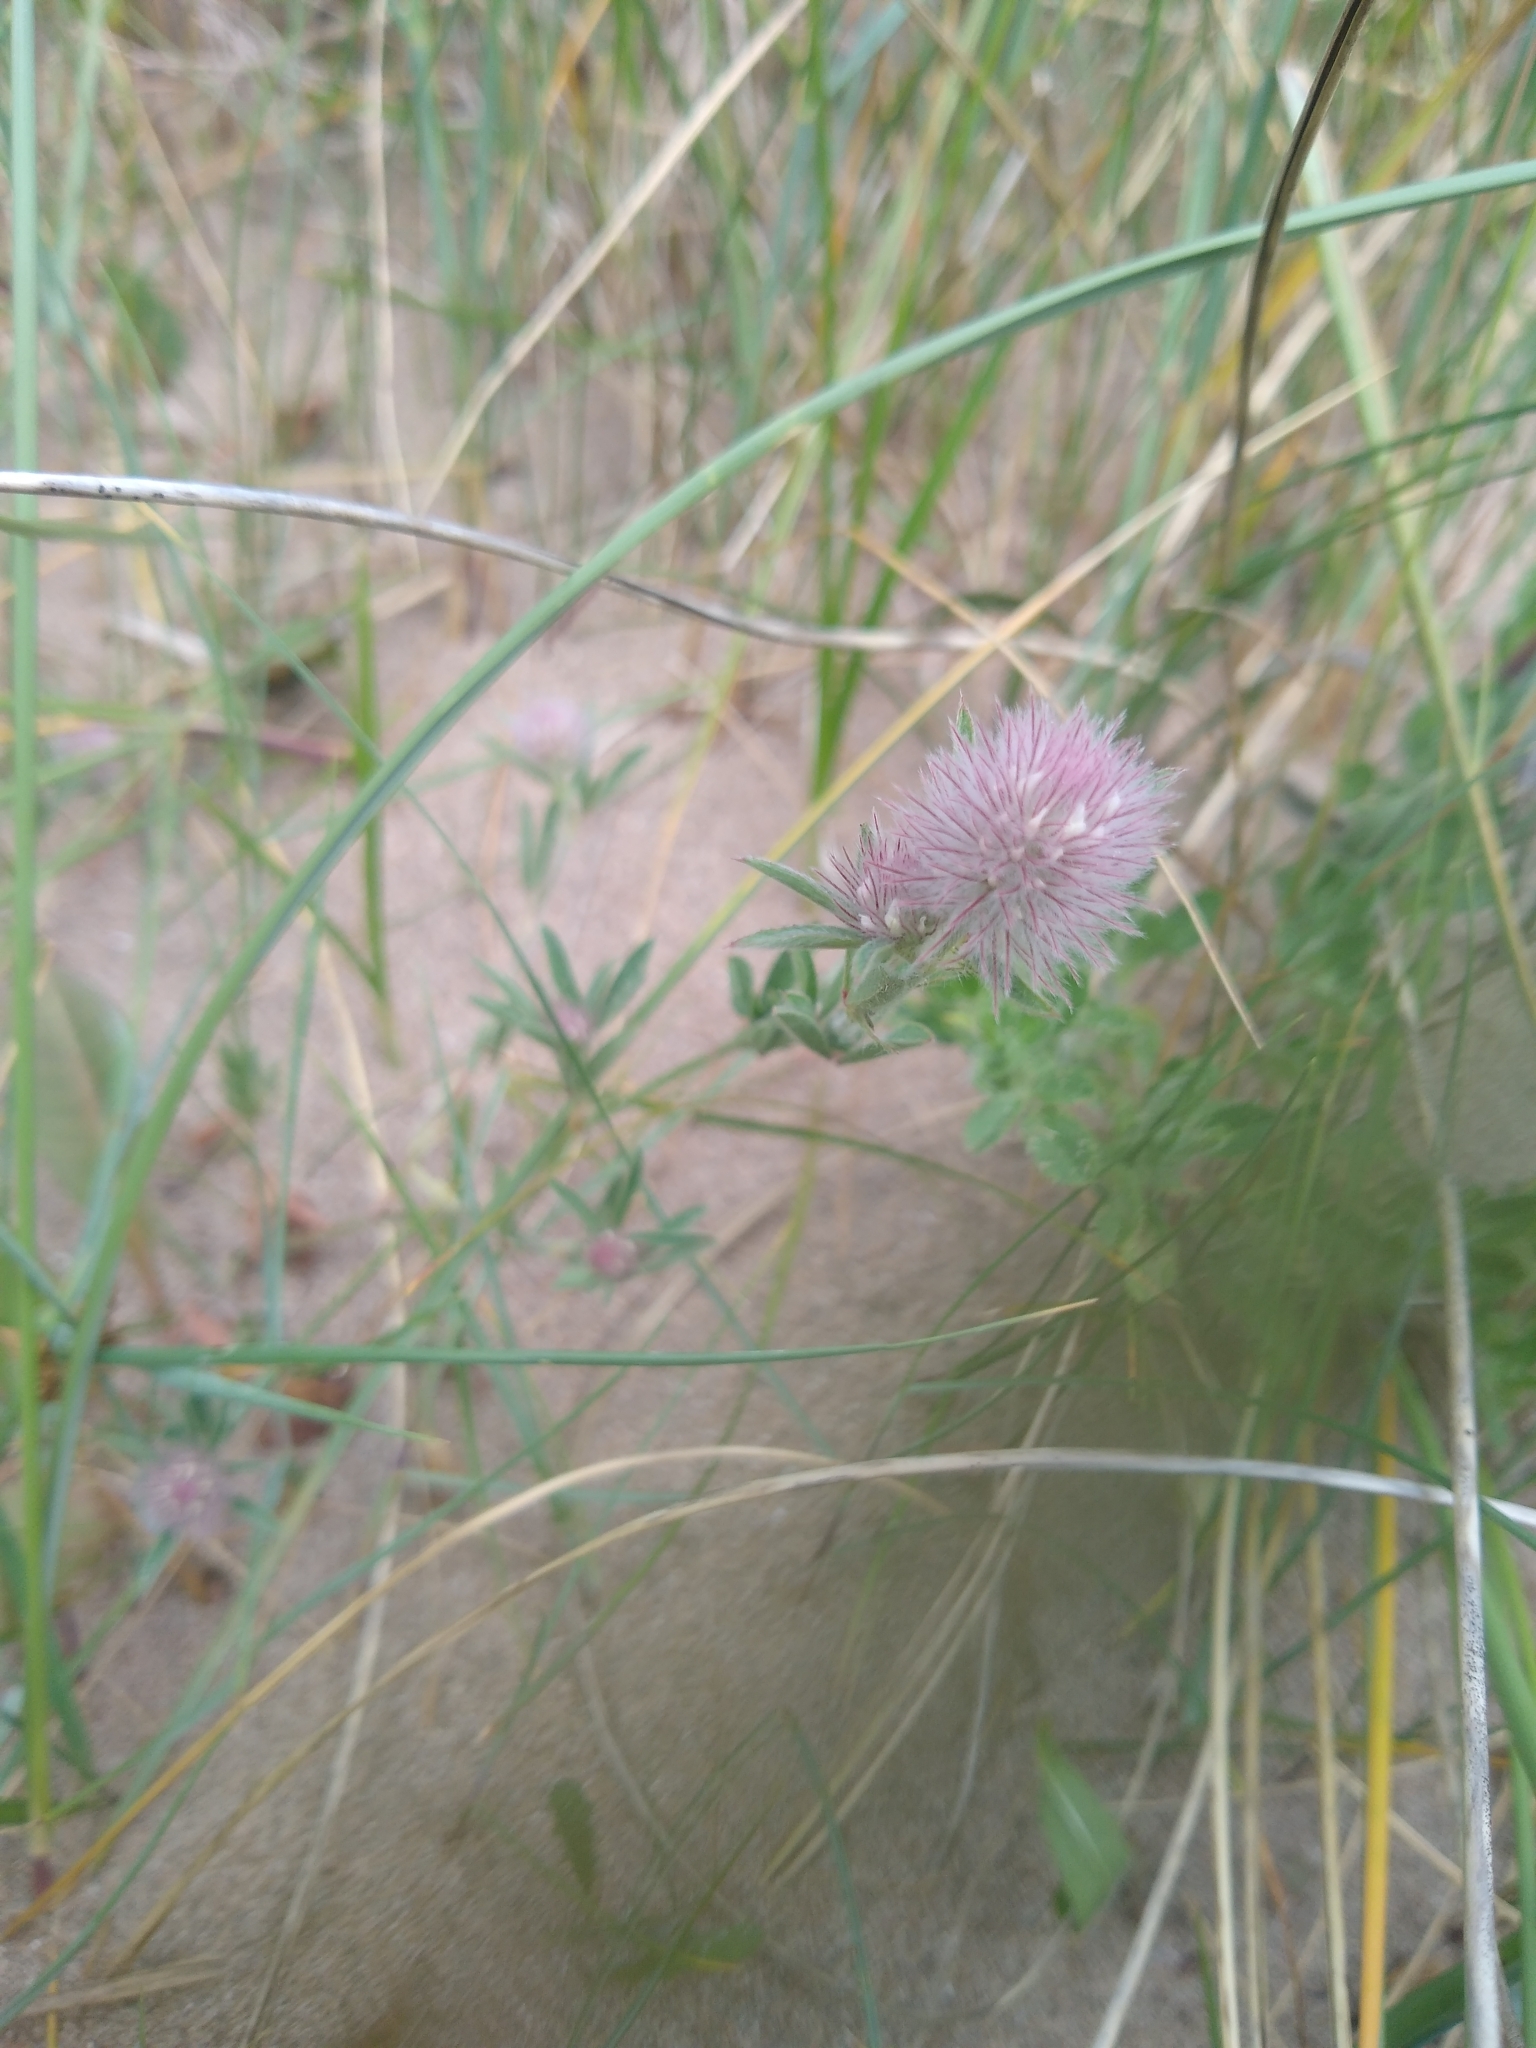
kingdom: Plantae
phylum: Tracheophyta
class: Magnoliopsida
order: Fabales
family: Fabaceae
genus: Trifolium
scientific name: Trifolium arvense
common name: Hare's-foot clover
